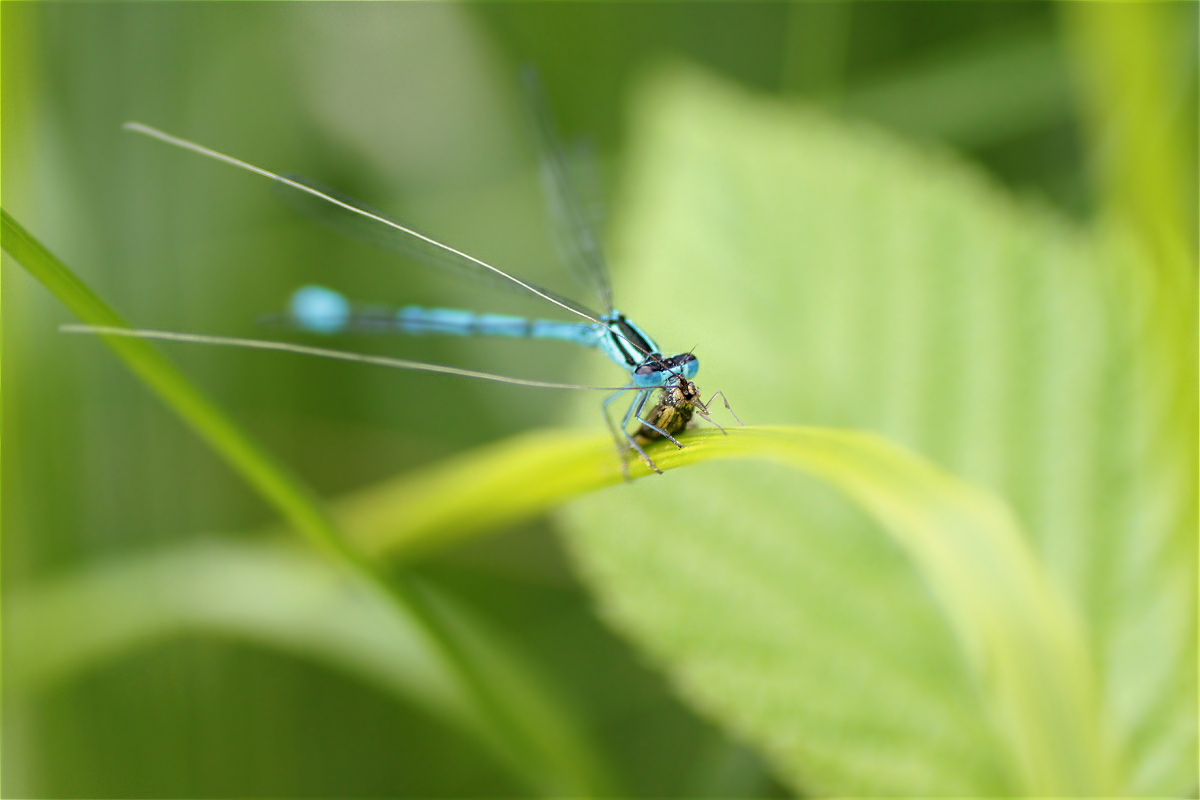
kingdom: Animalia
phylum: Arthropoda
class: Insecta
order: Lepidoptera
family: Adelidae
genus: Nemophora
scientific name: Nemophora
